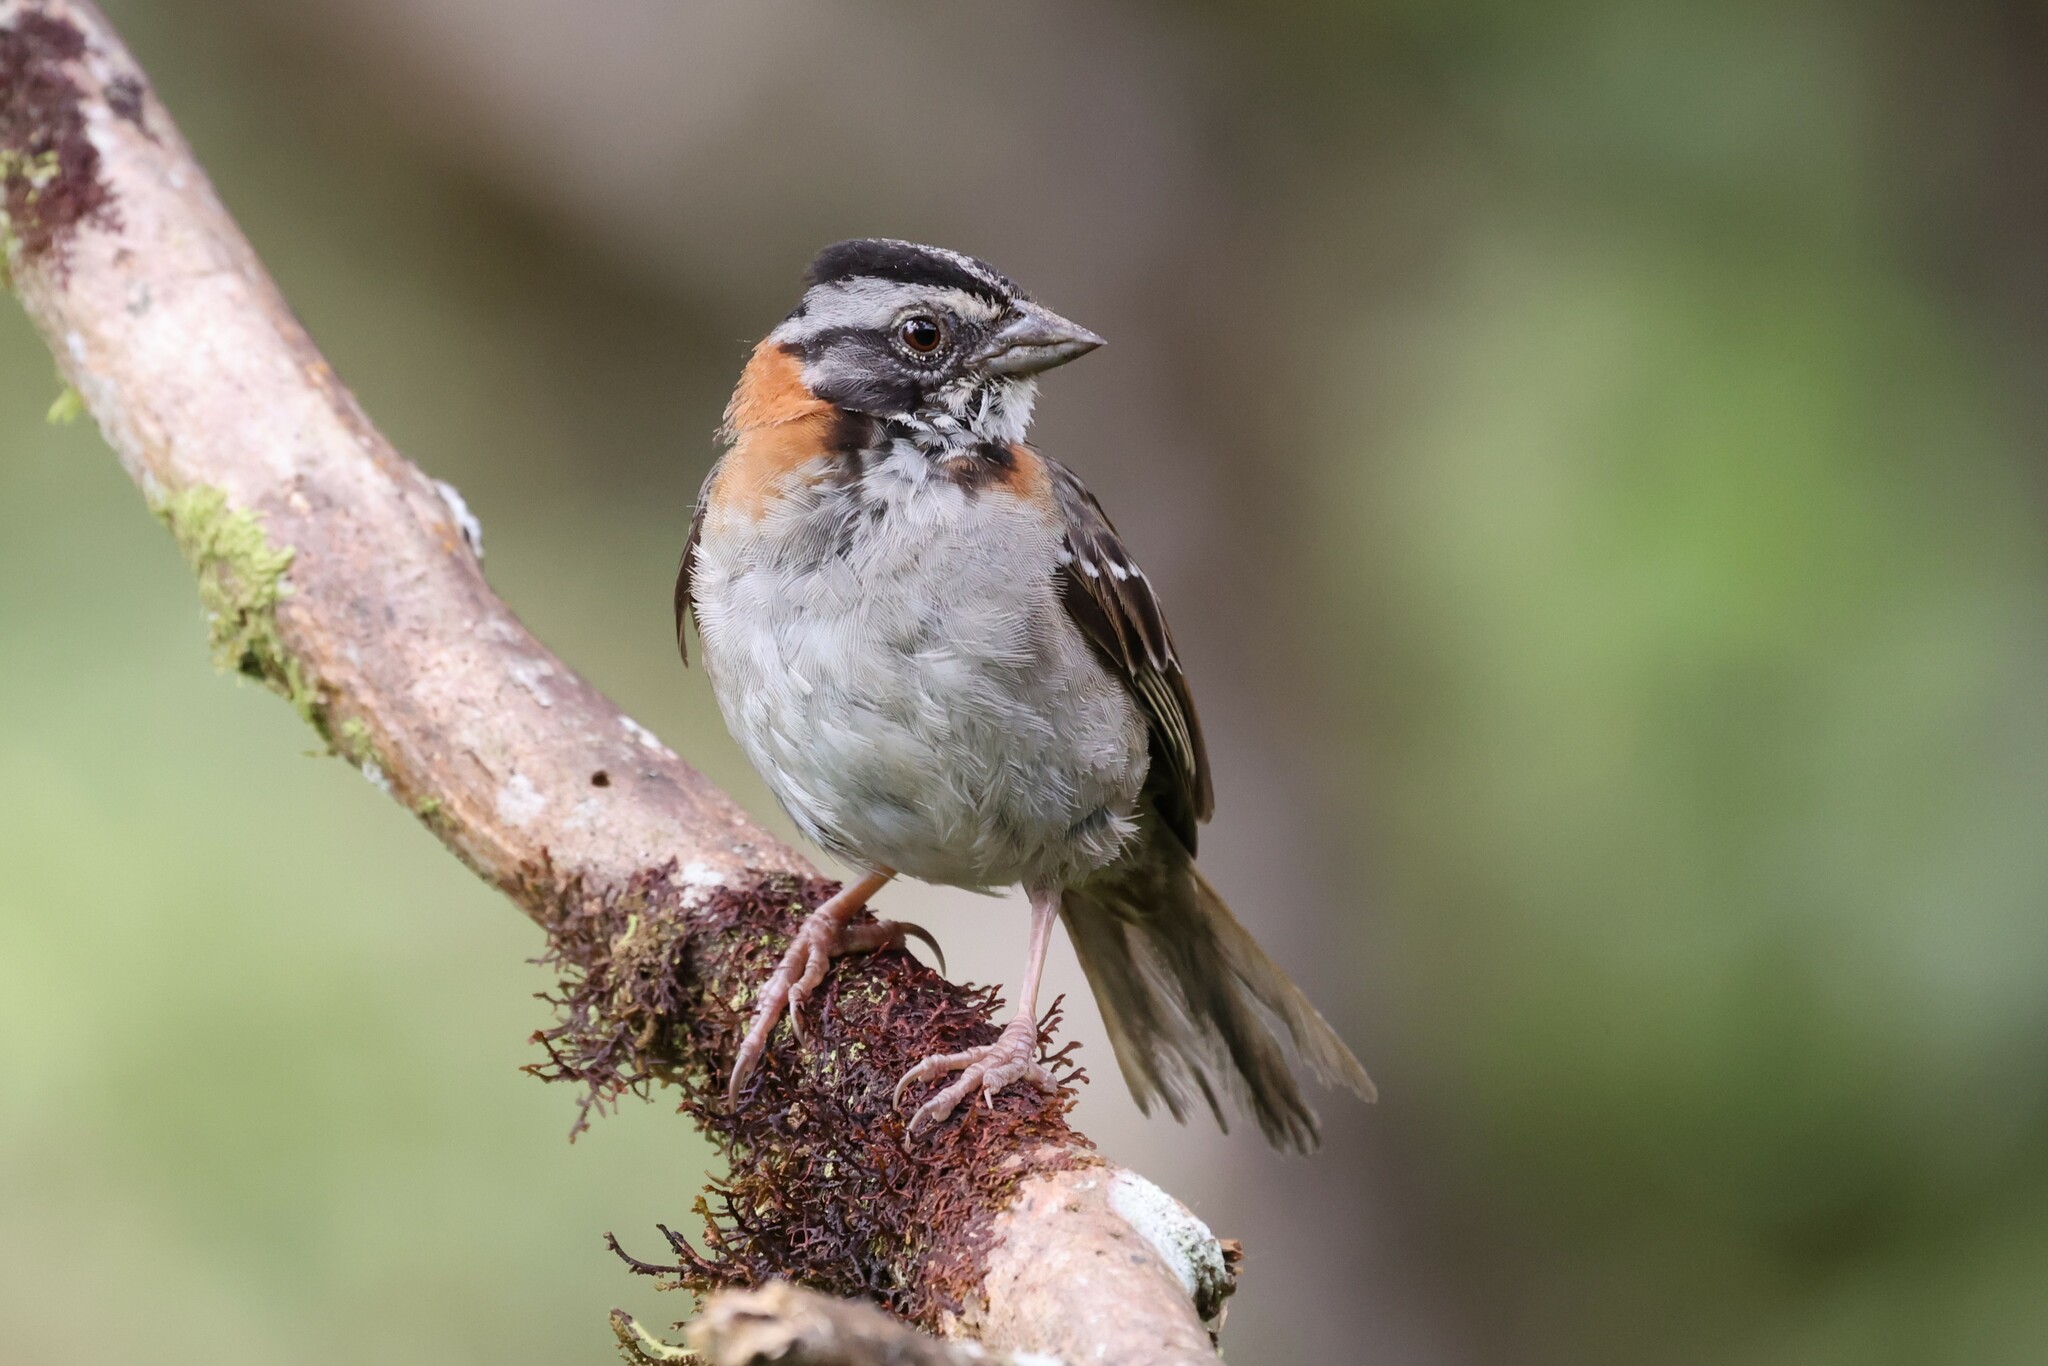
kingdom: Animalia
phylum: Chordata
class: Aves
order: Passeriformes
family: Passerellidae
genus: Zonotrichia
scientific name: Zonotrichia capensis
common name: Rufous-collared sparrow
